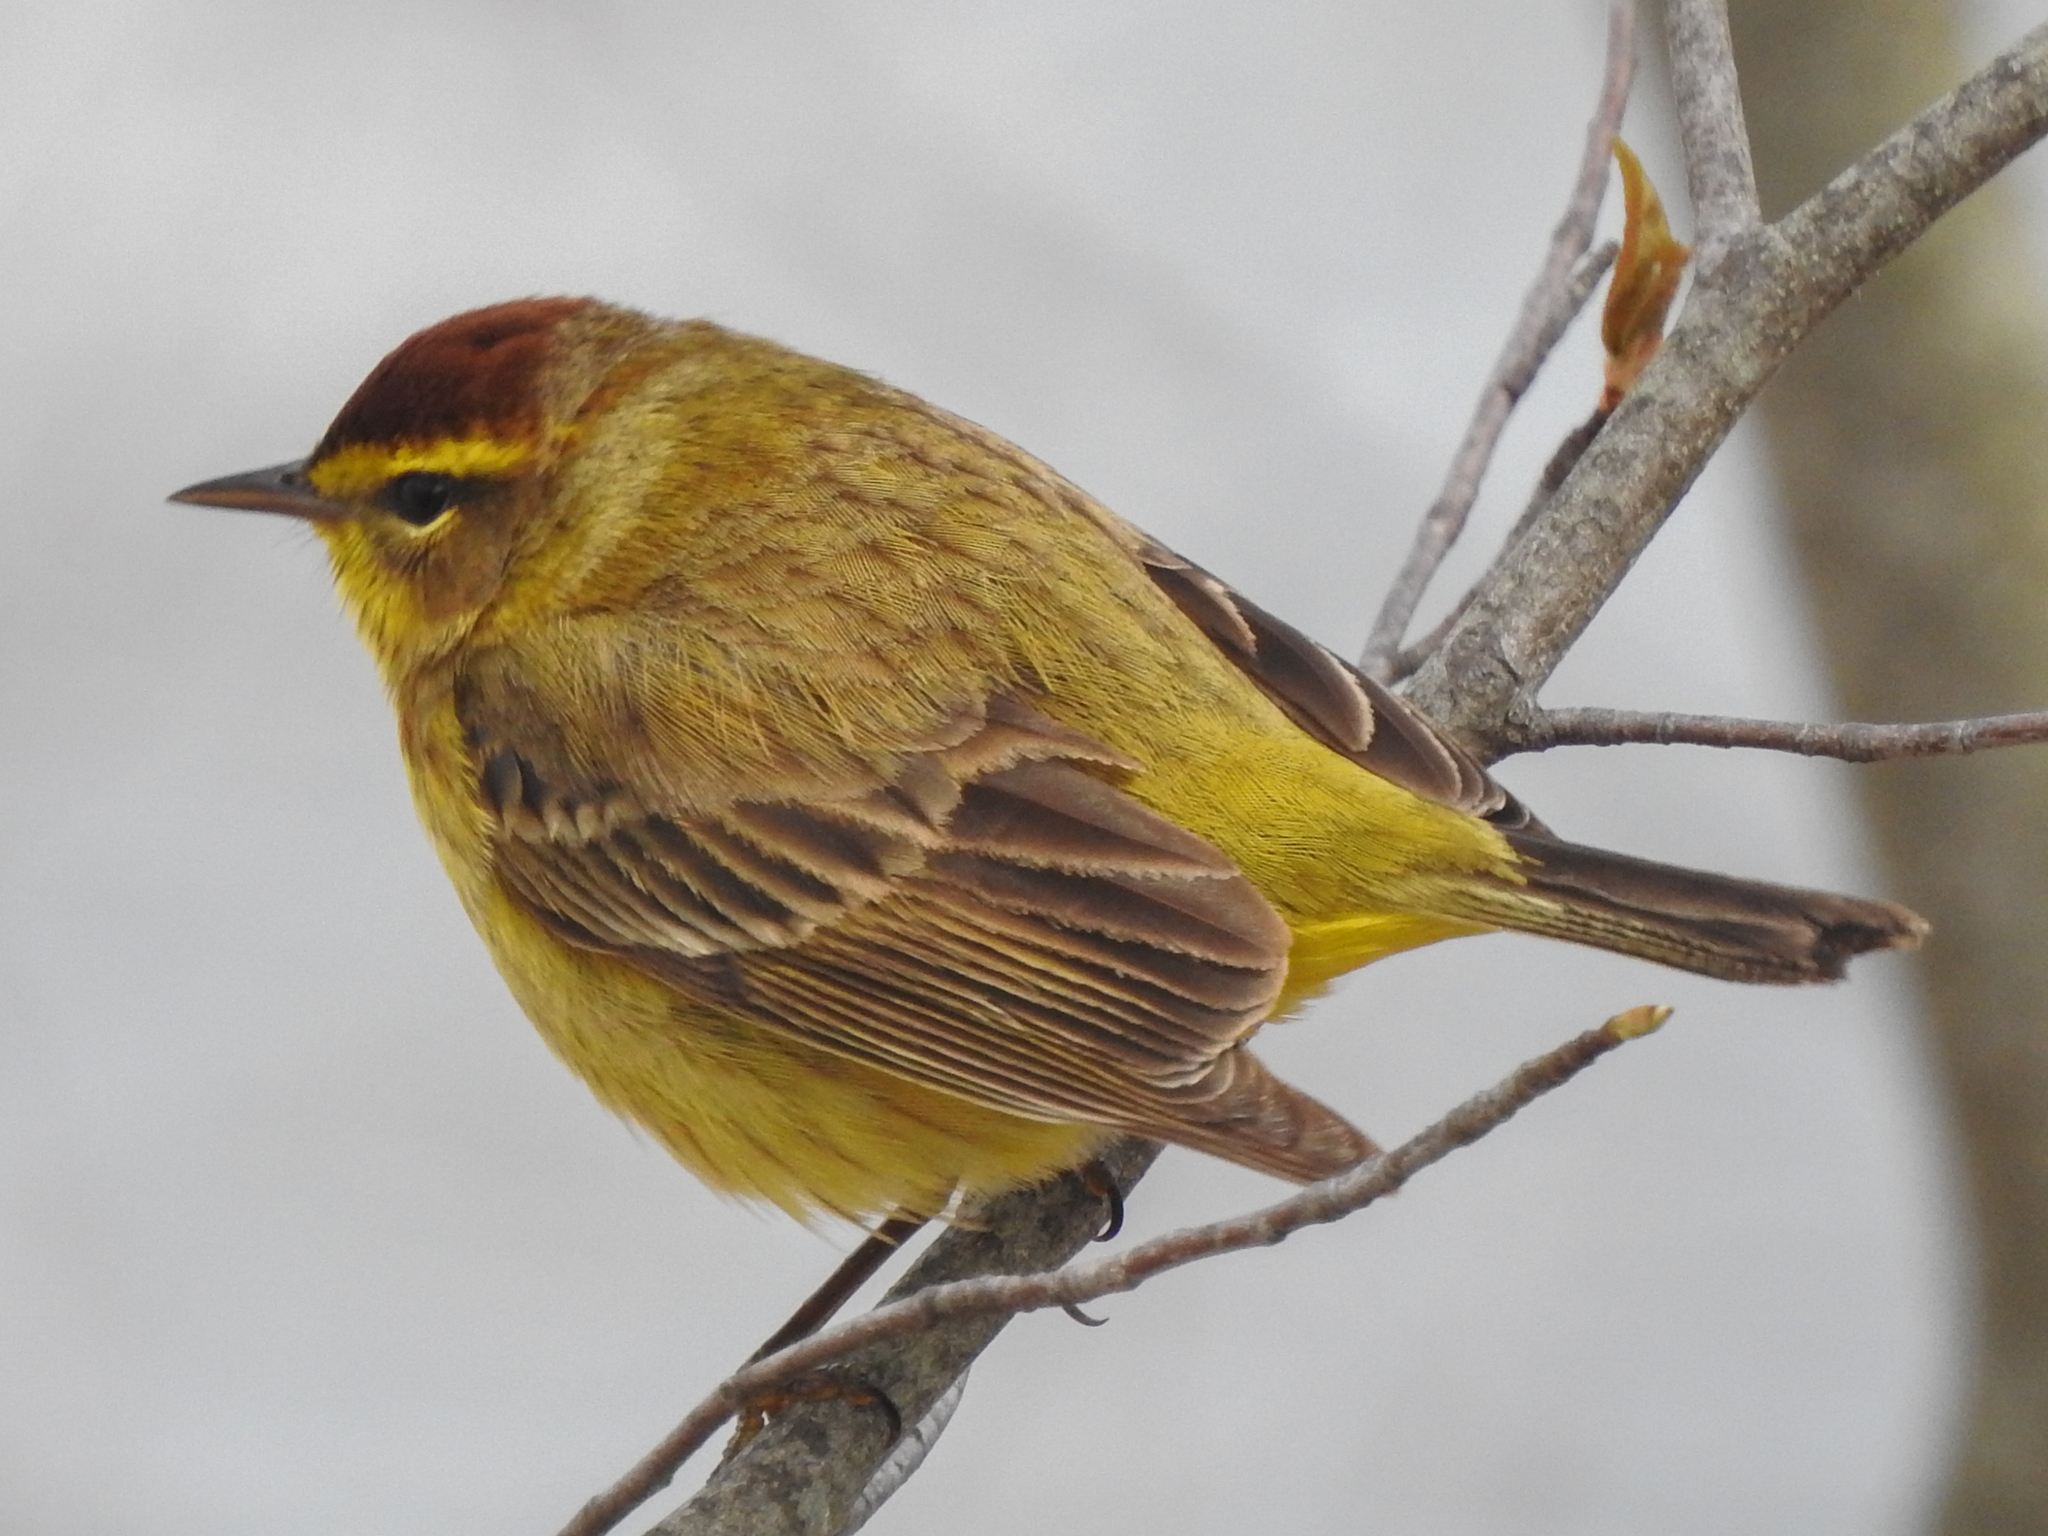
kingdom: Animalia
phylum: Chordata
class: Aves
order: Passeriformes
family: Parulidae
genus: Setophaga
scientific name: Setophaga palmarum
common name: Palm warbler
